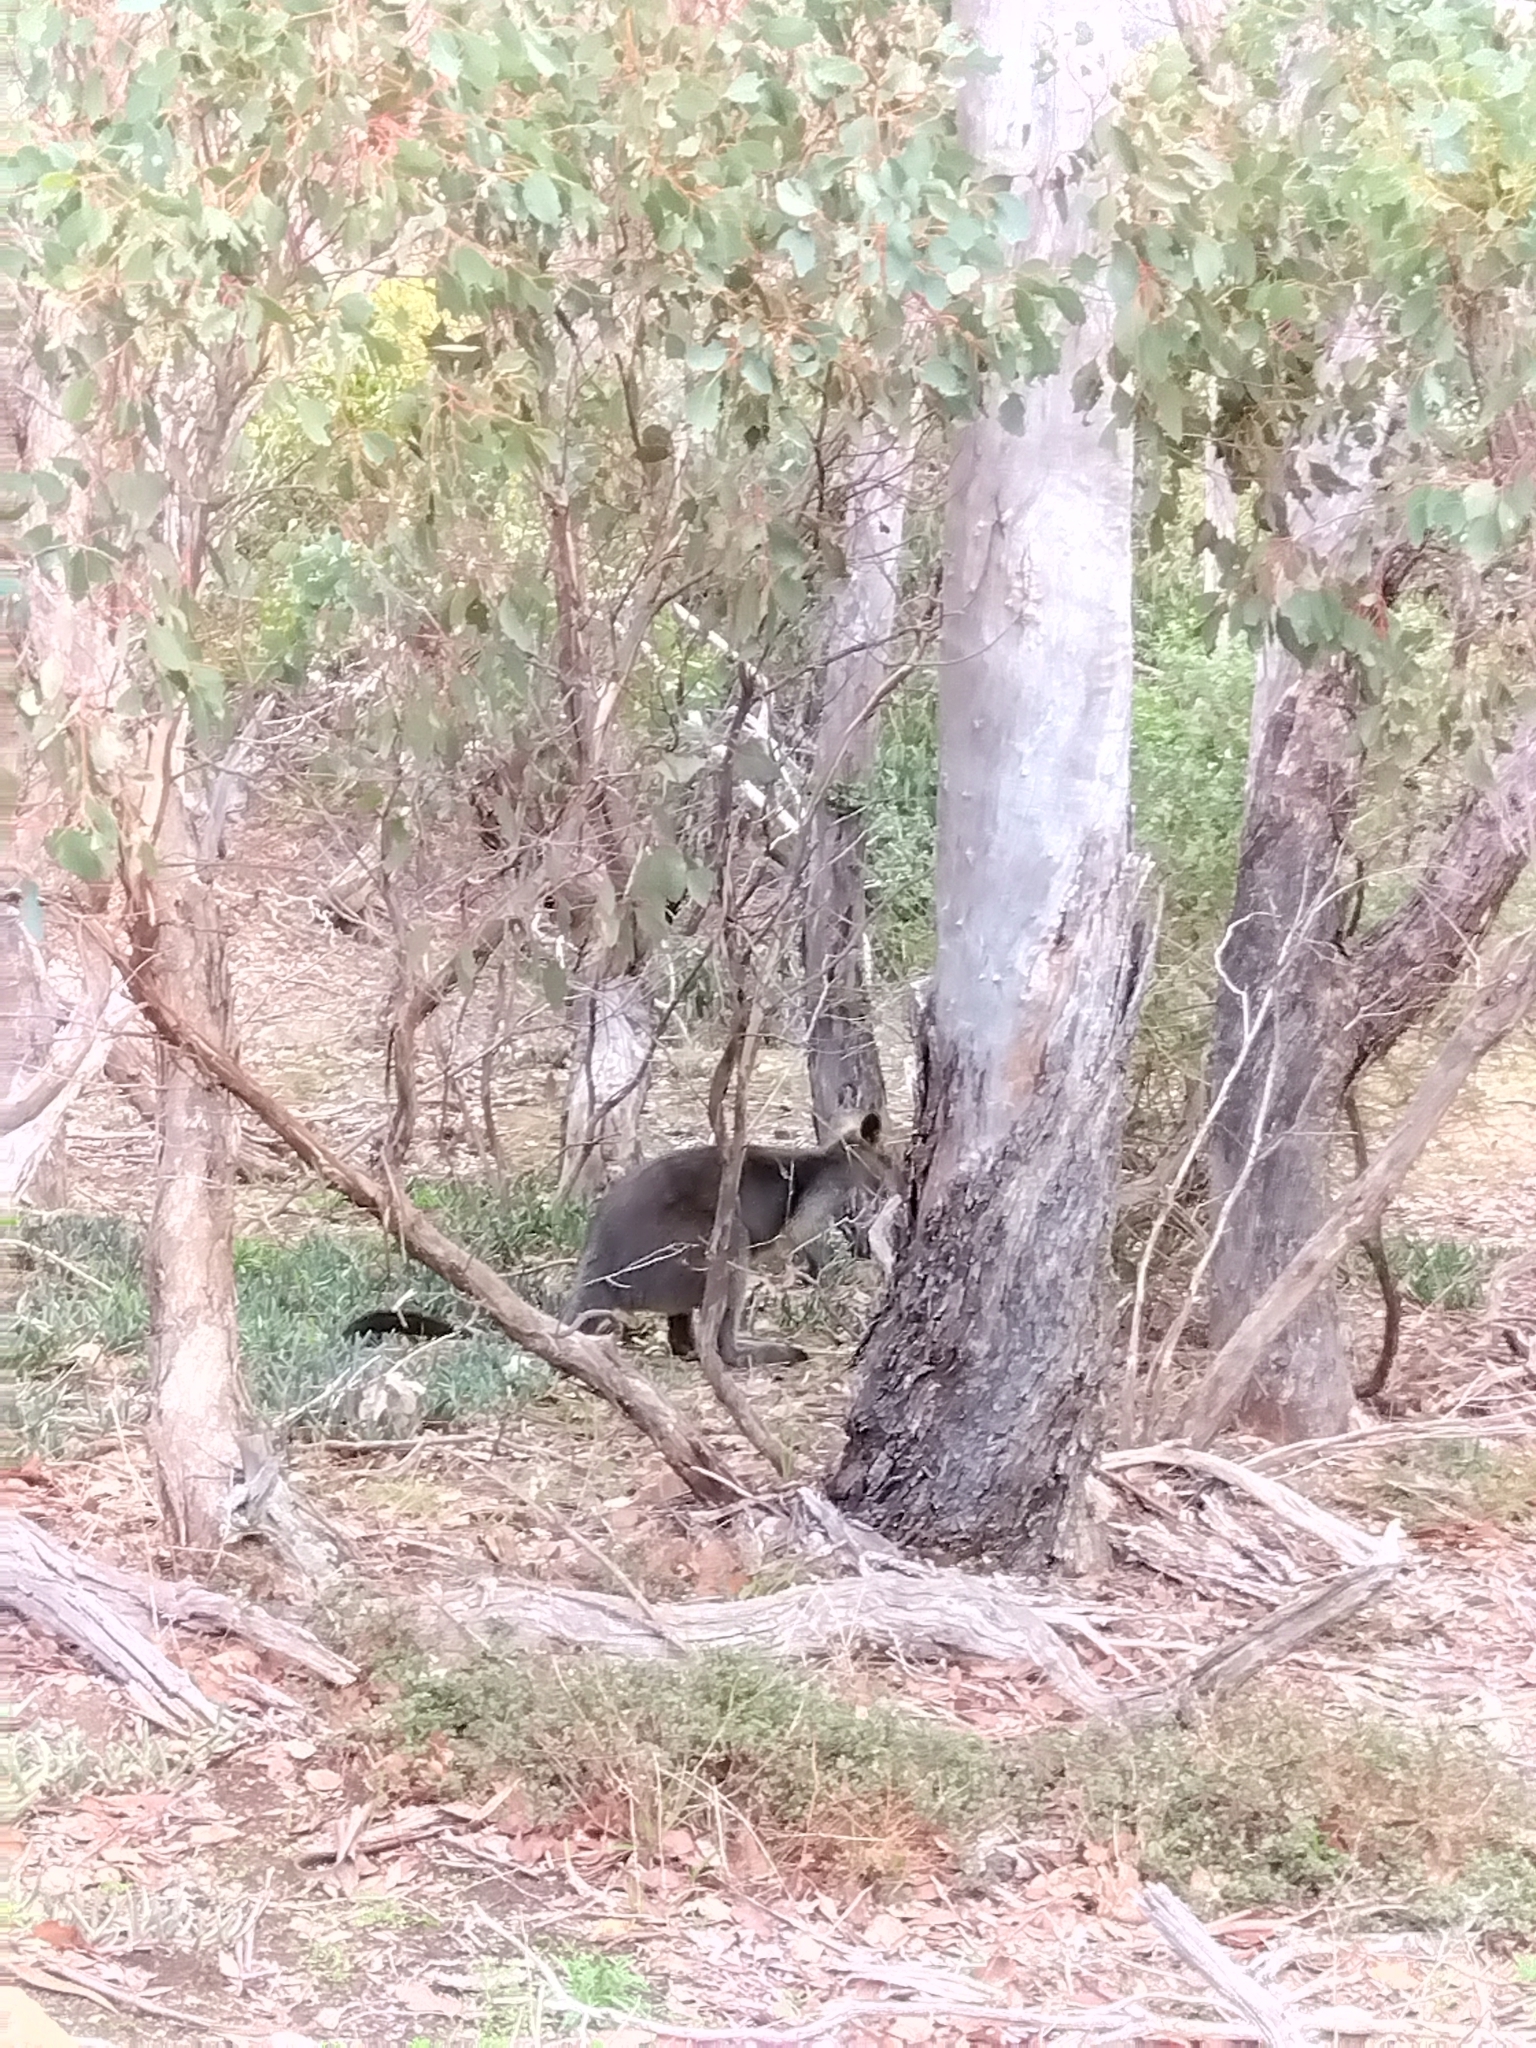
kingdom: Animalia
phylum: Chordata
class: Mammalia
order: Diprotodontia
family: Macropodidae
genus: Wallabia
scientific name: Wallabia bicolor
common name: Swamp wallaby
